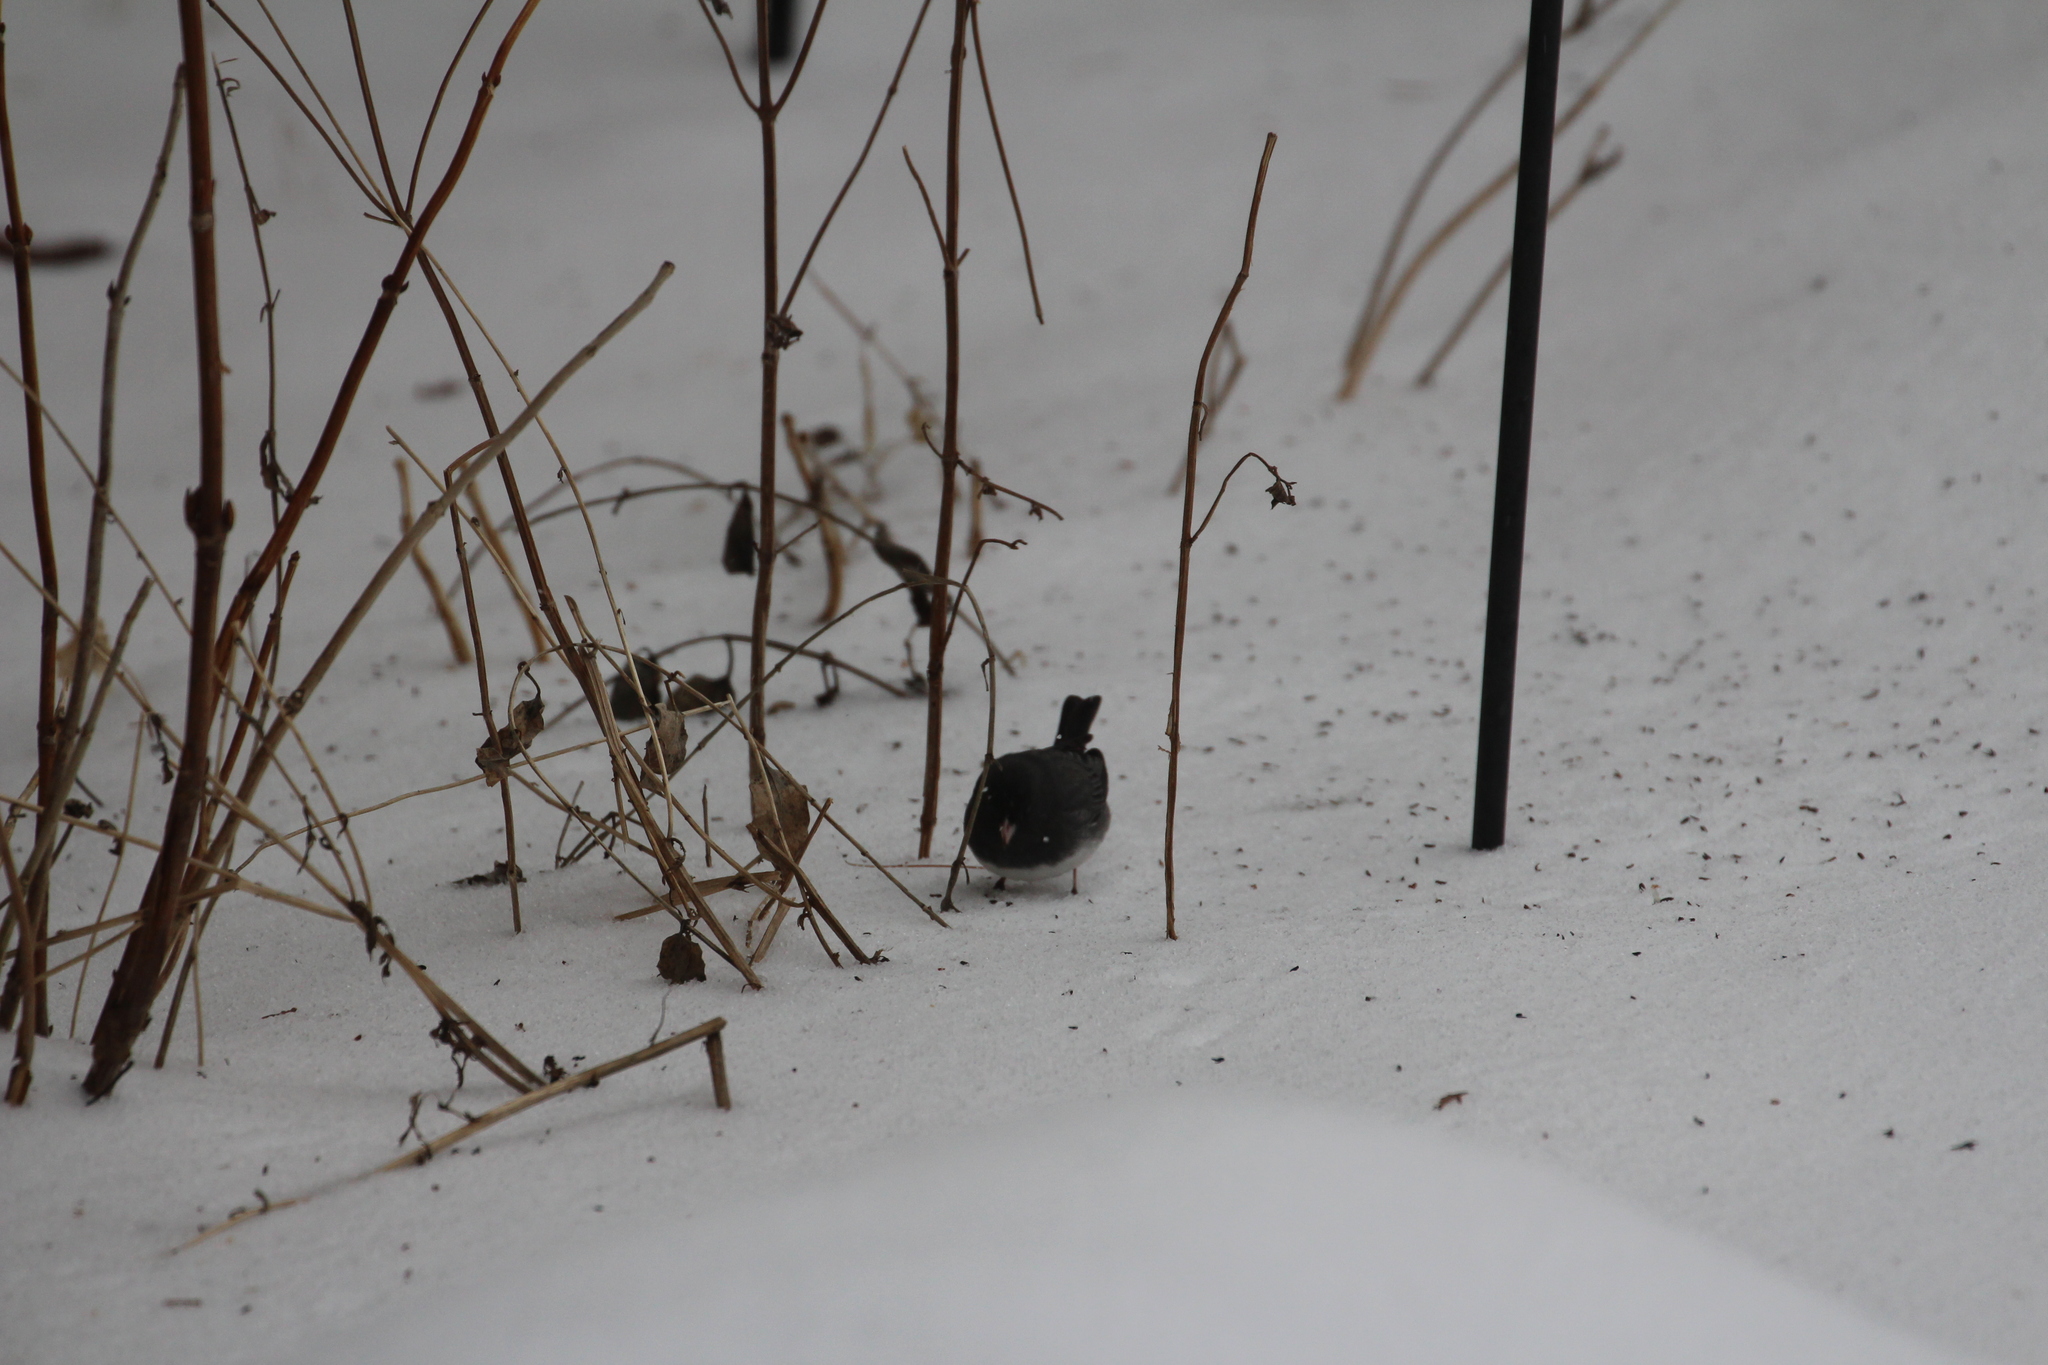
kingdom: Animalia
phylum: Chordata
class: Aves
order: Passeriformes
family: Passerellidae
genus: Junco
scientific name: Junco hyemalis
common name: Dark-eyed junco
